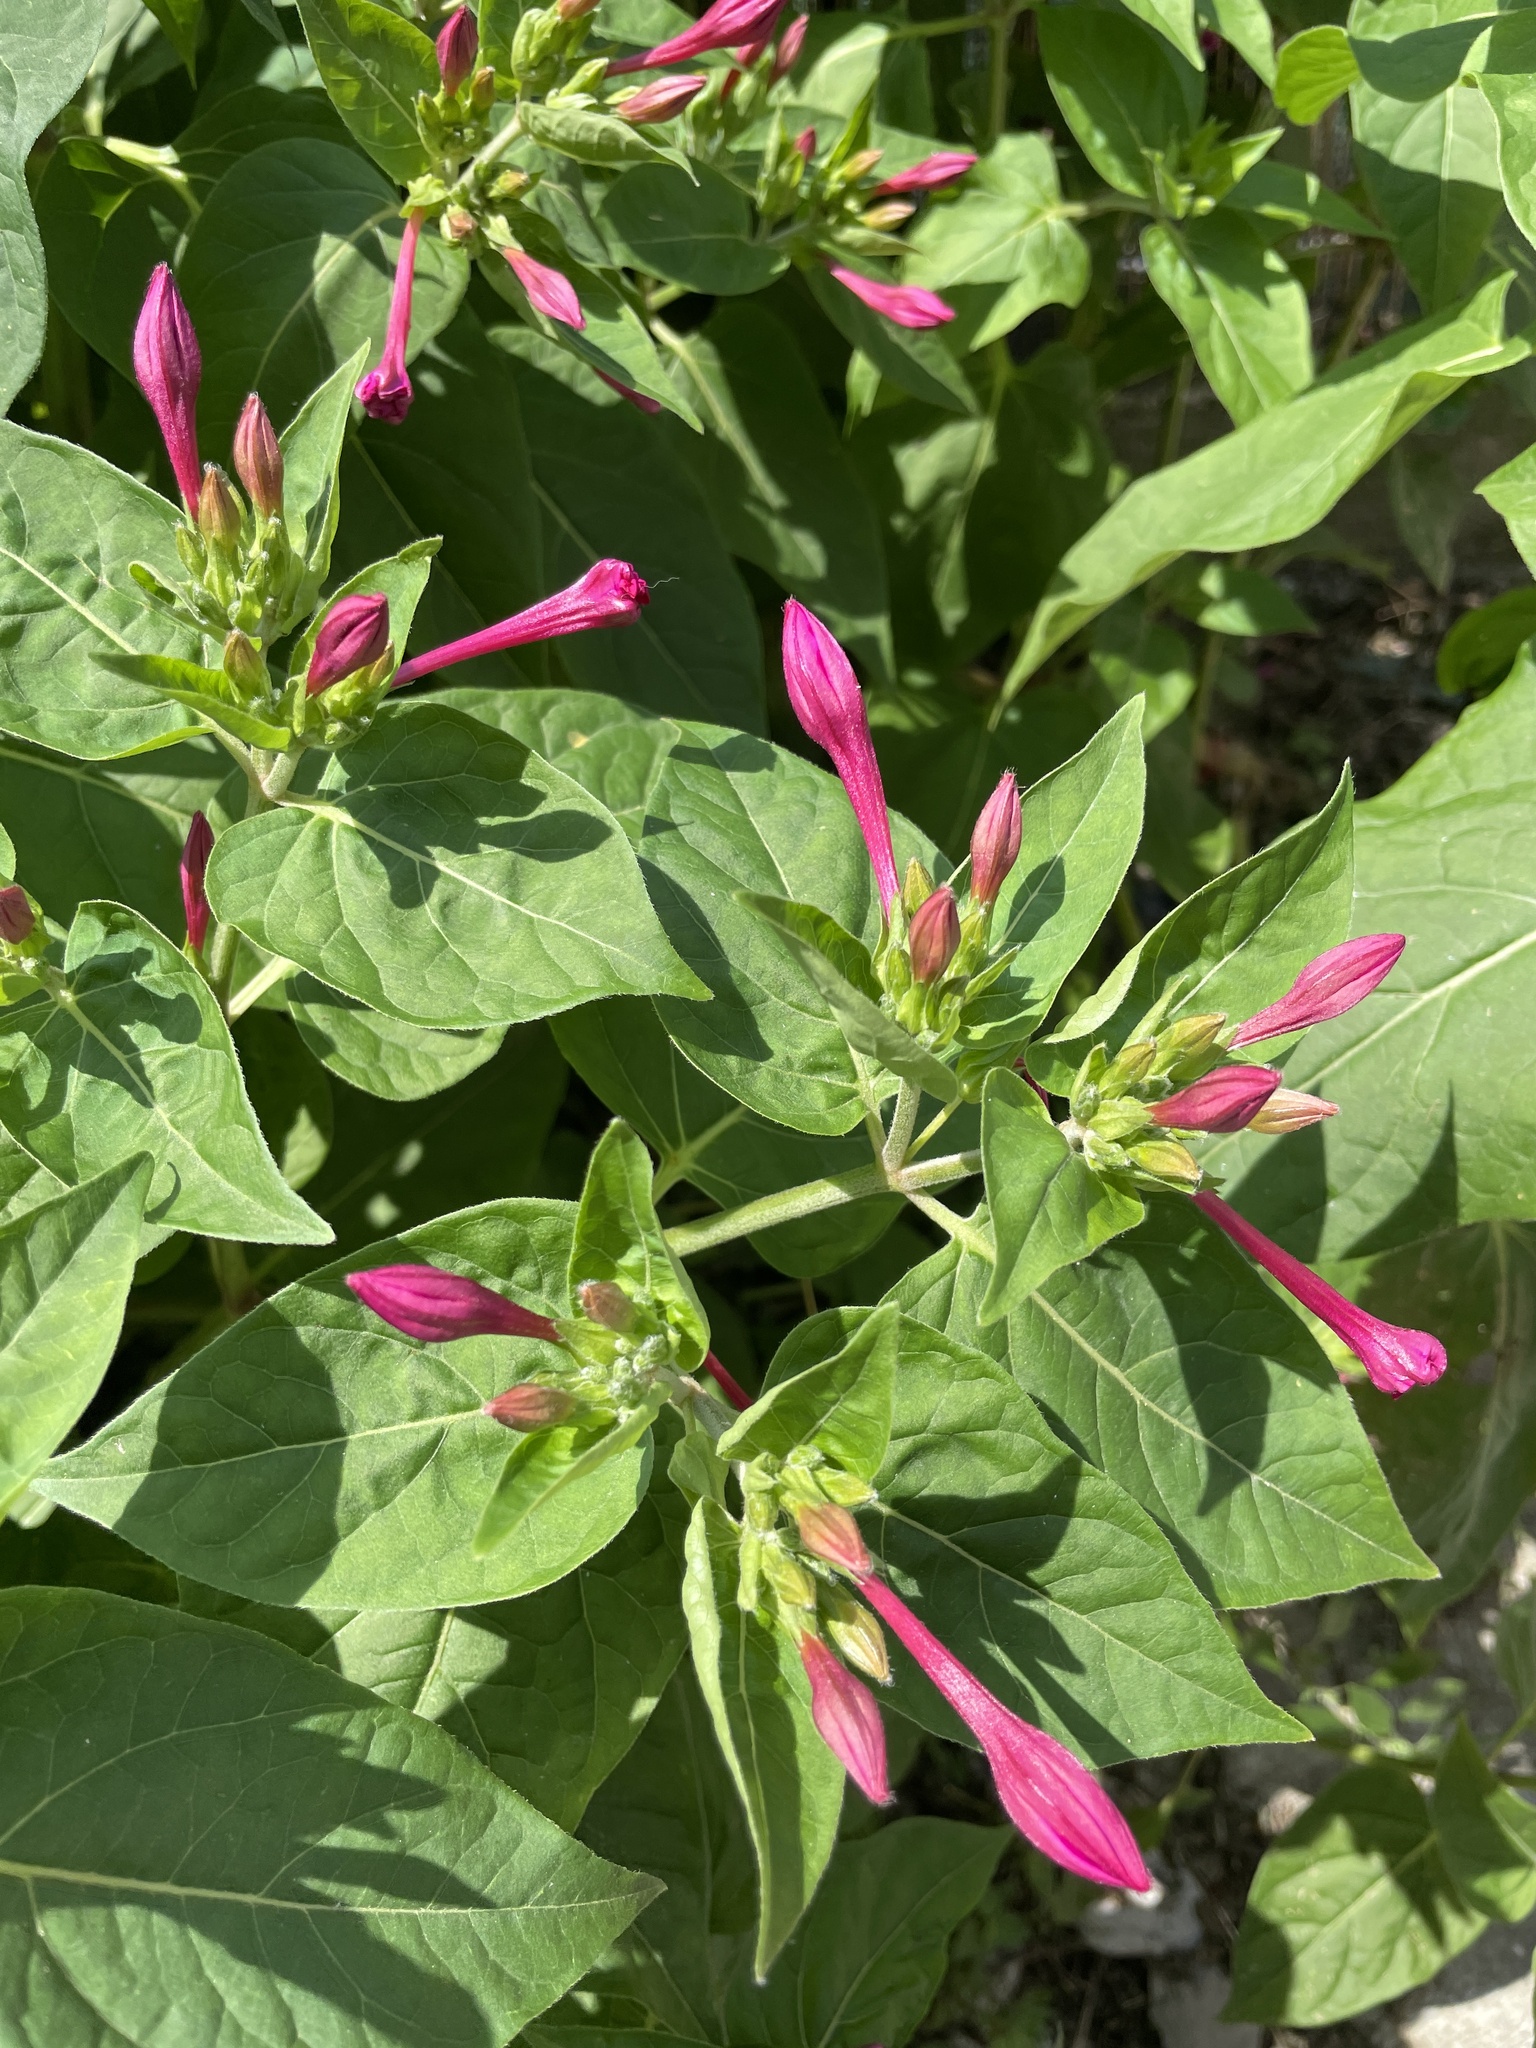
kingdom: Plantae
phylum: Tracheophyta
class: Magnoliopsida
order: Caryophyllales
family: Nyctaginaceae
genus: Mirabilis
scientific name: Mirabilis jalapa
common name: Marvel-of-peru
